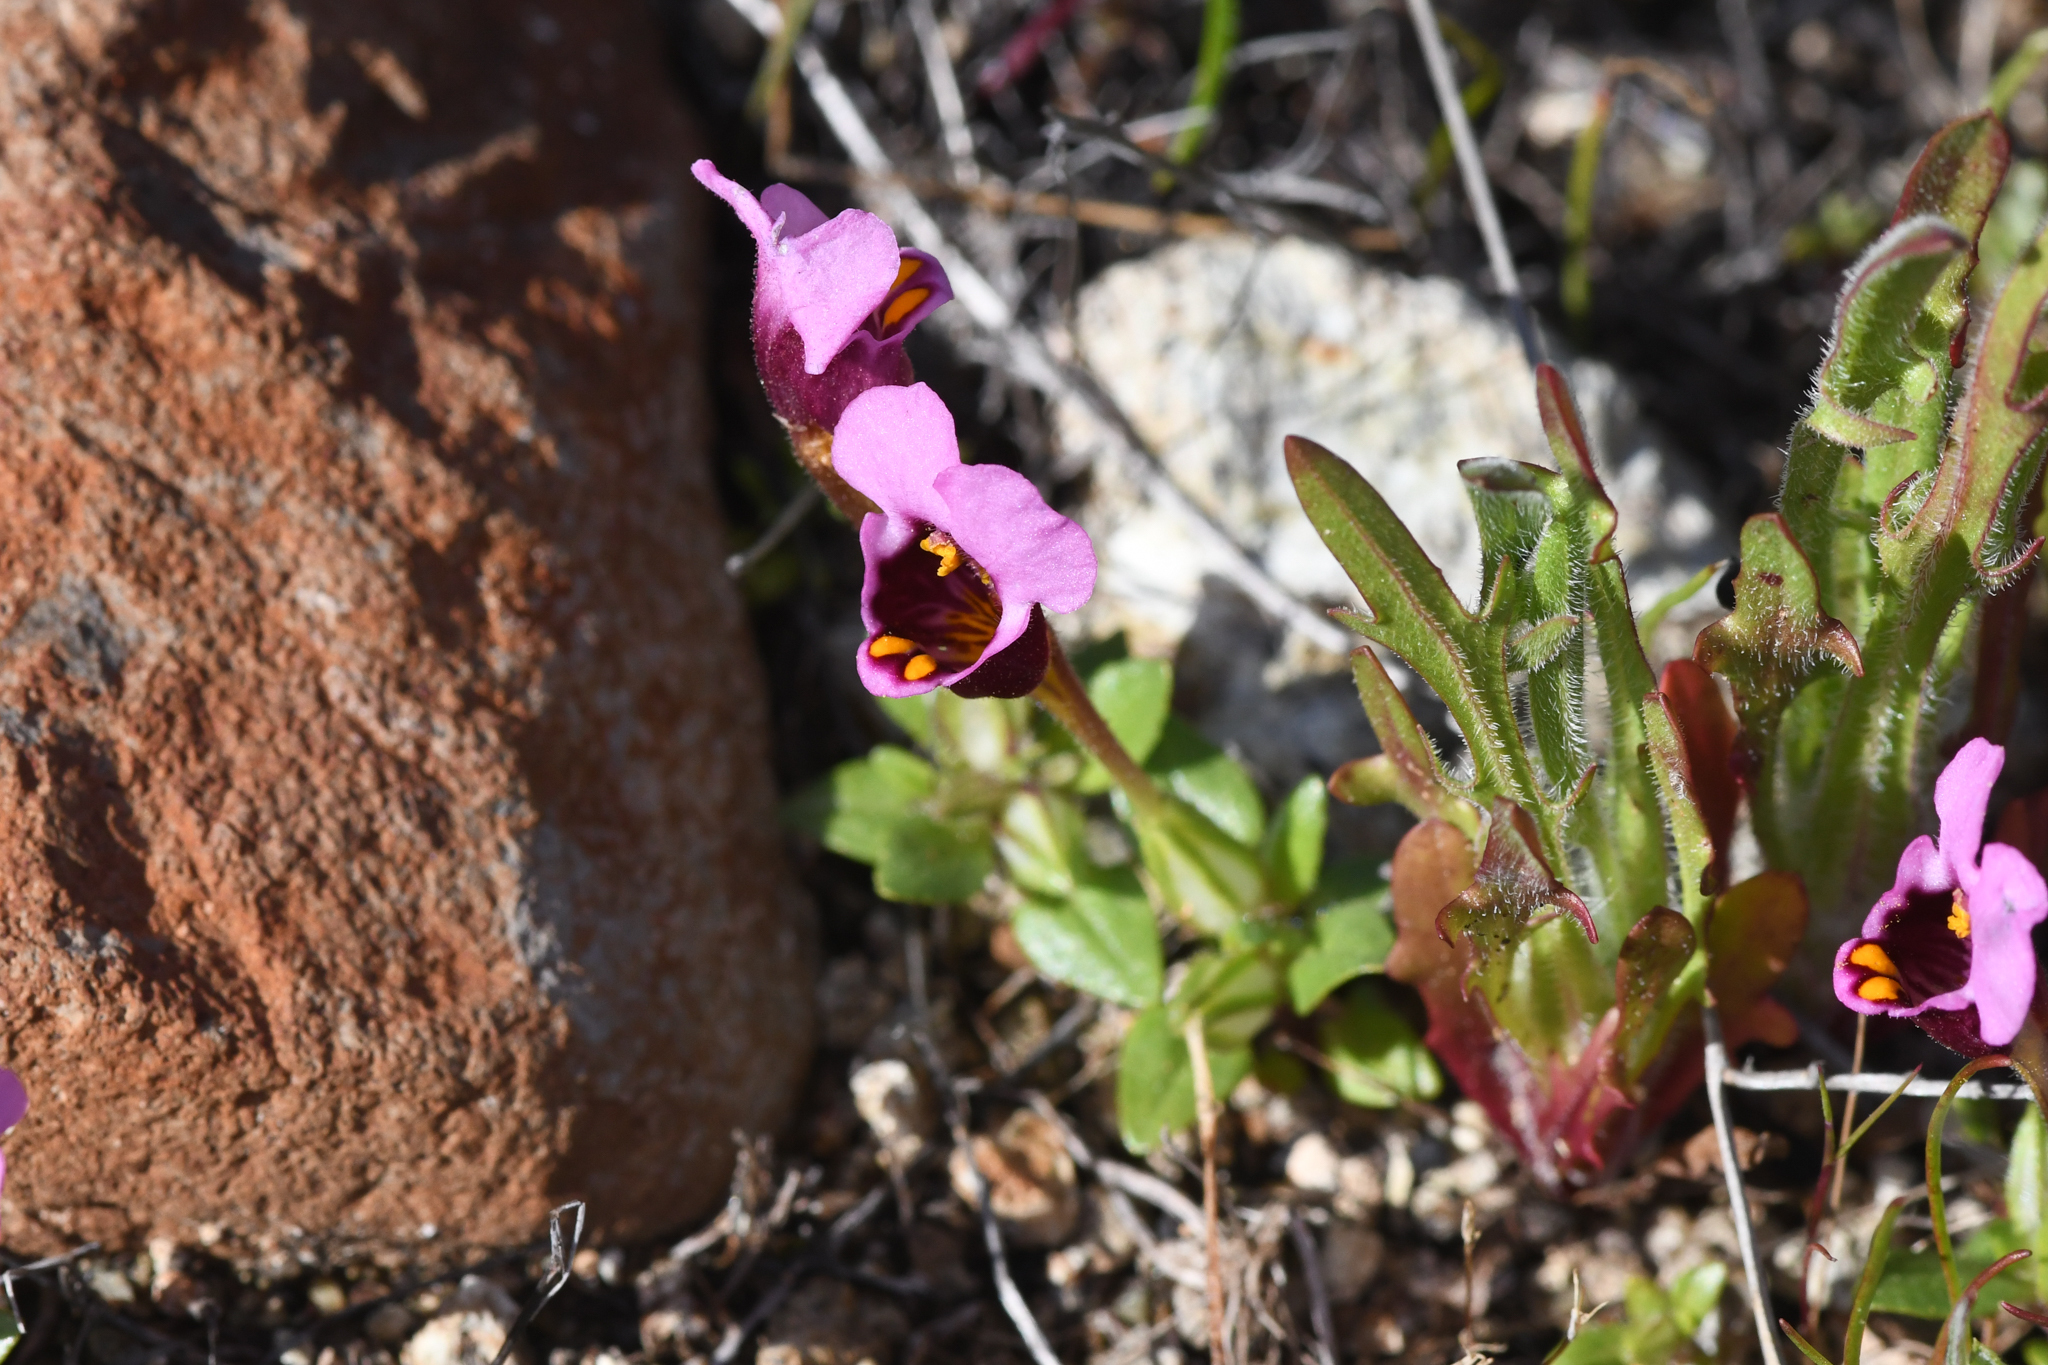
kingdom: Plantae
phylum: Tracheophyta
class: Magnoliopsida
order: Lamiales
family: Phrymaceae
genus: Diplacus
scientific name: Diplacus douglasii
